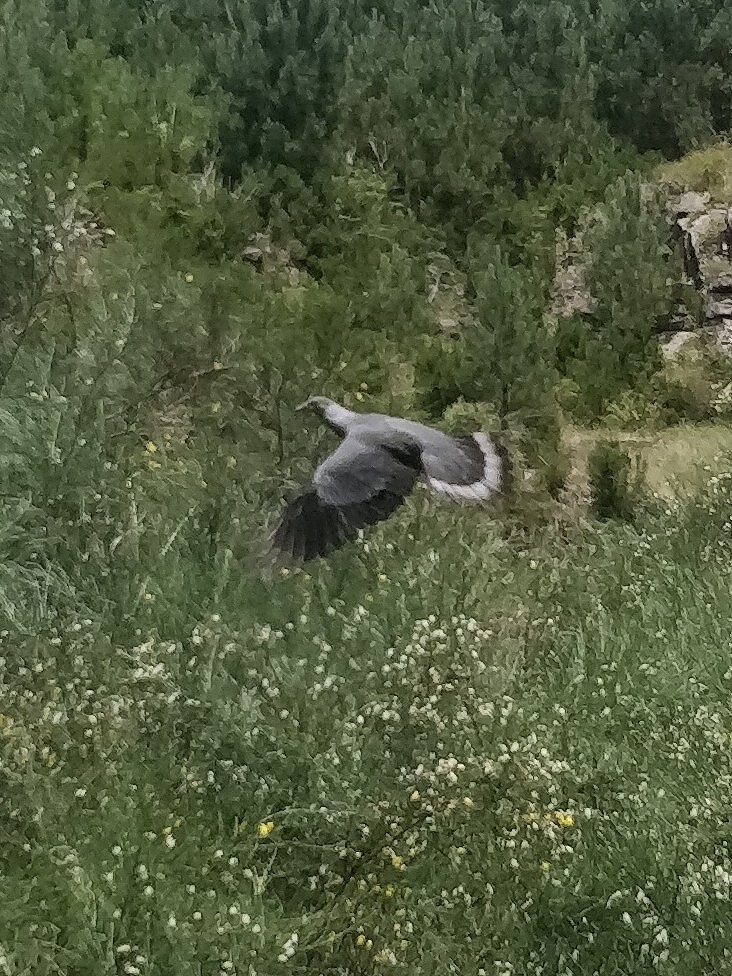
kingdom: Animalia
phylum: Chordata
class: Aves
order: Columbiformes
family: Columbidae
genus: Columba
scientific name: Columba trocaz
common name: Trocaz pigeon
